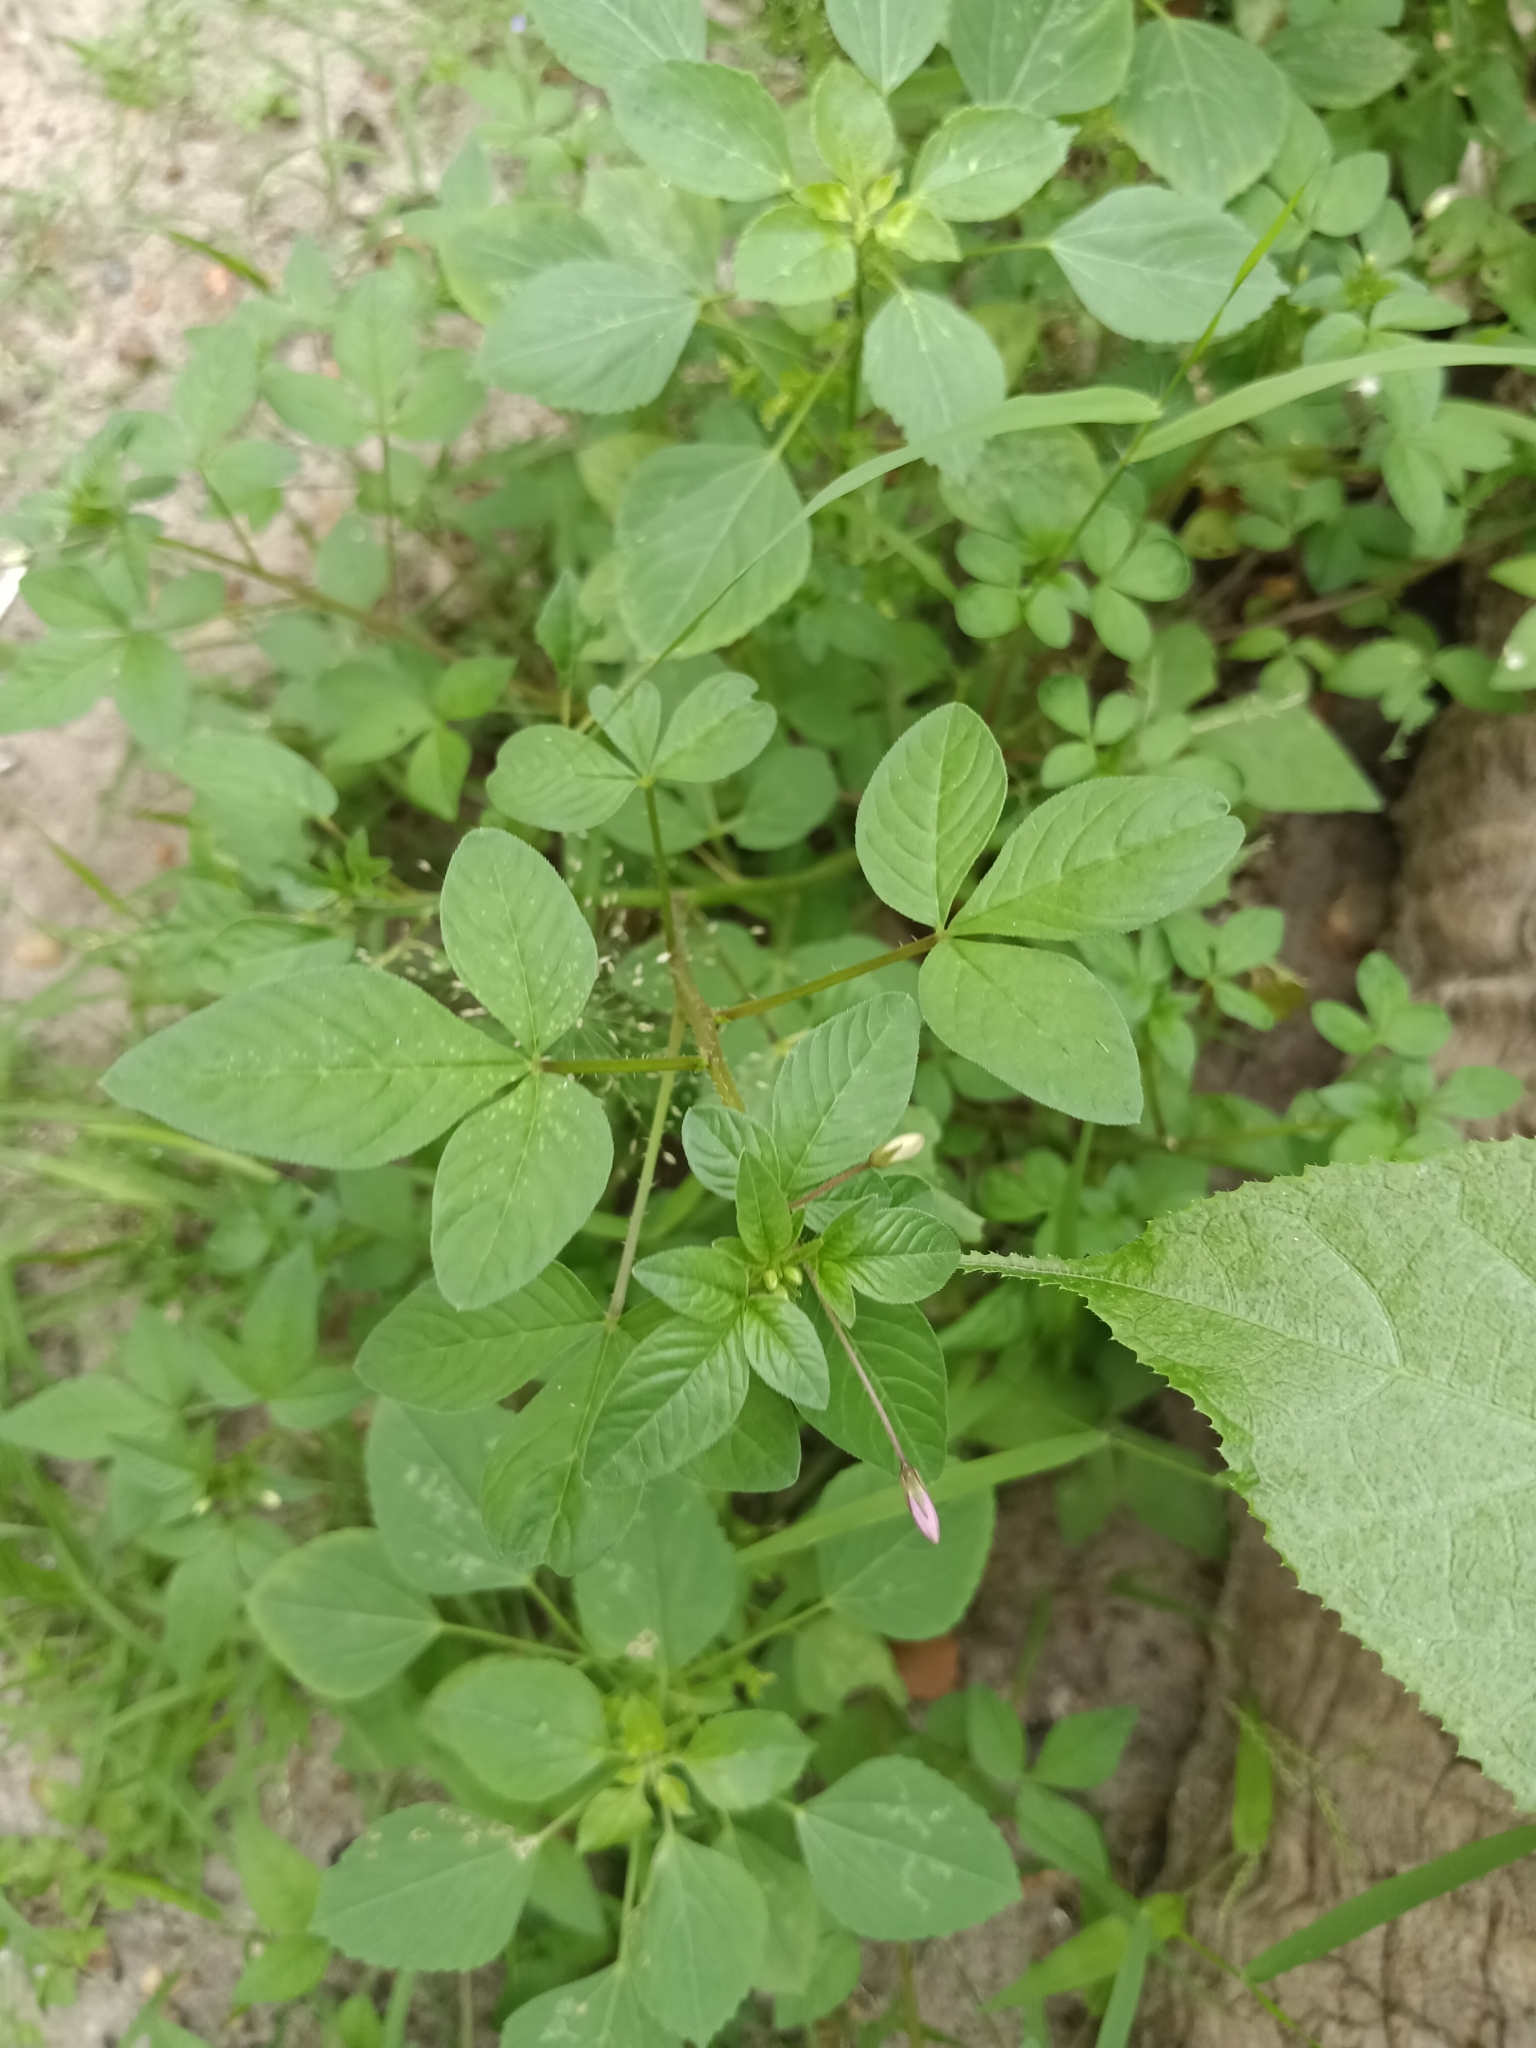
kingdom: Plantae
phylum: Tracheophyta
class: Magnoliopsida
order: Brassicales
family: Cleomaceae
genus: Sieruela
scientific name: Sieruela rutidosperma
